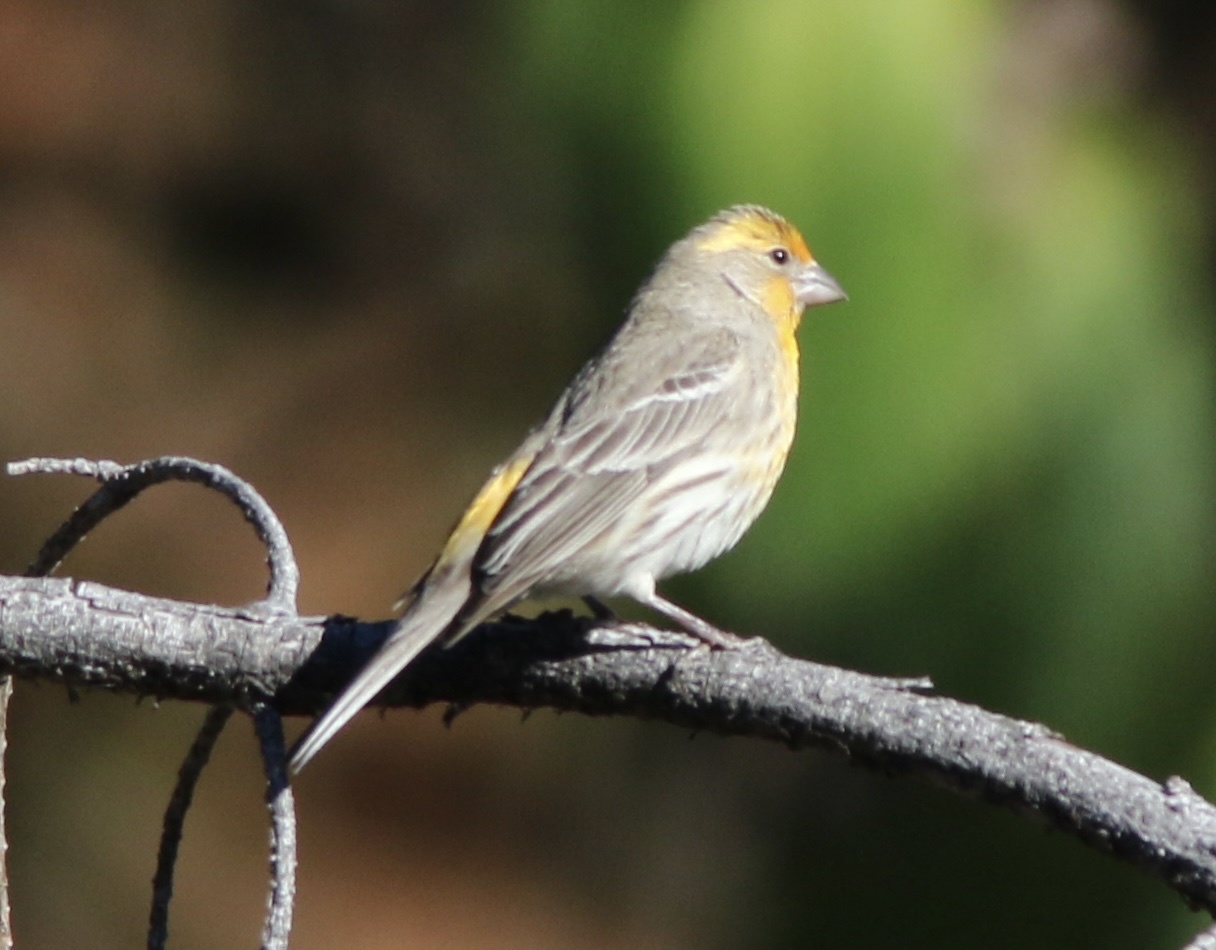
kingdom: Animalia
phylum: Chordata
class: Aves
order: Passeriformes
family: Fringillidae
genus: Haemorhous
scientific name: Haemorhous mexicanus
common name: House finch
